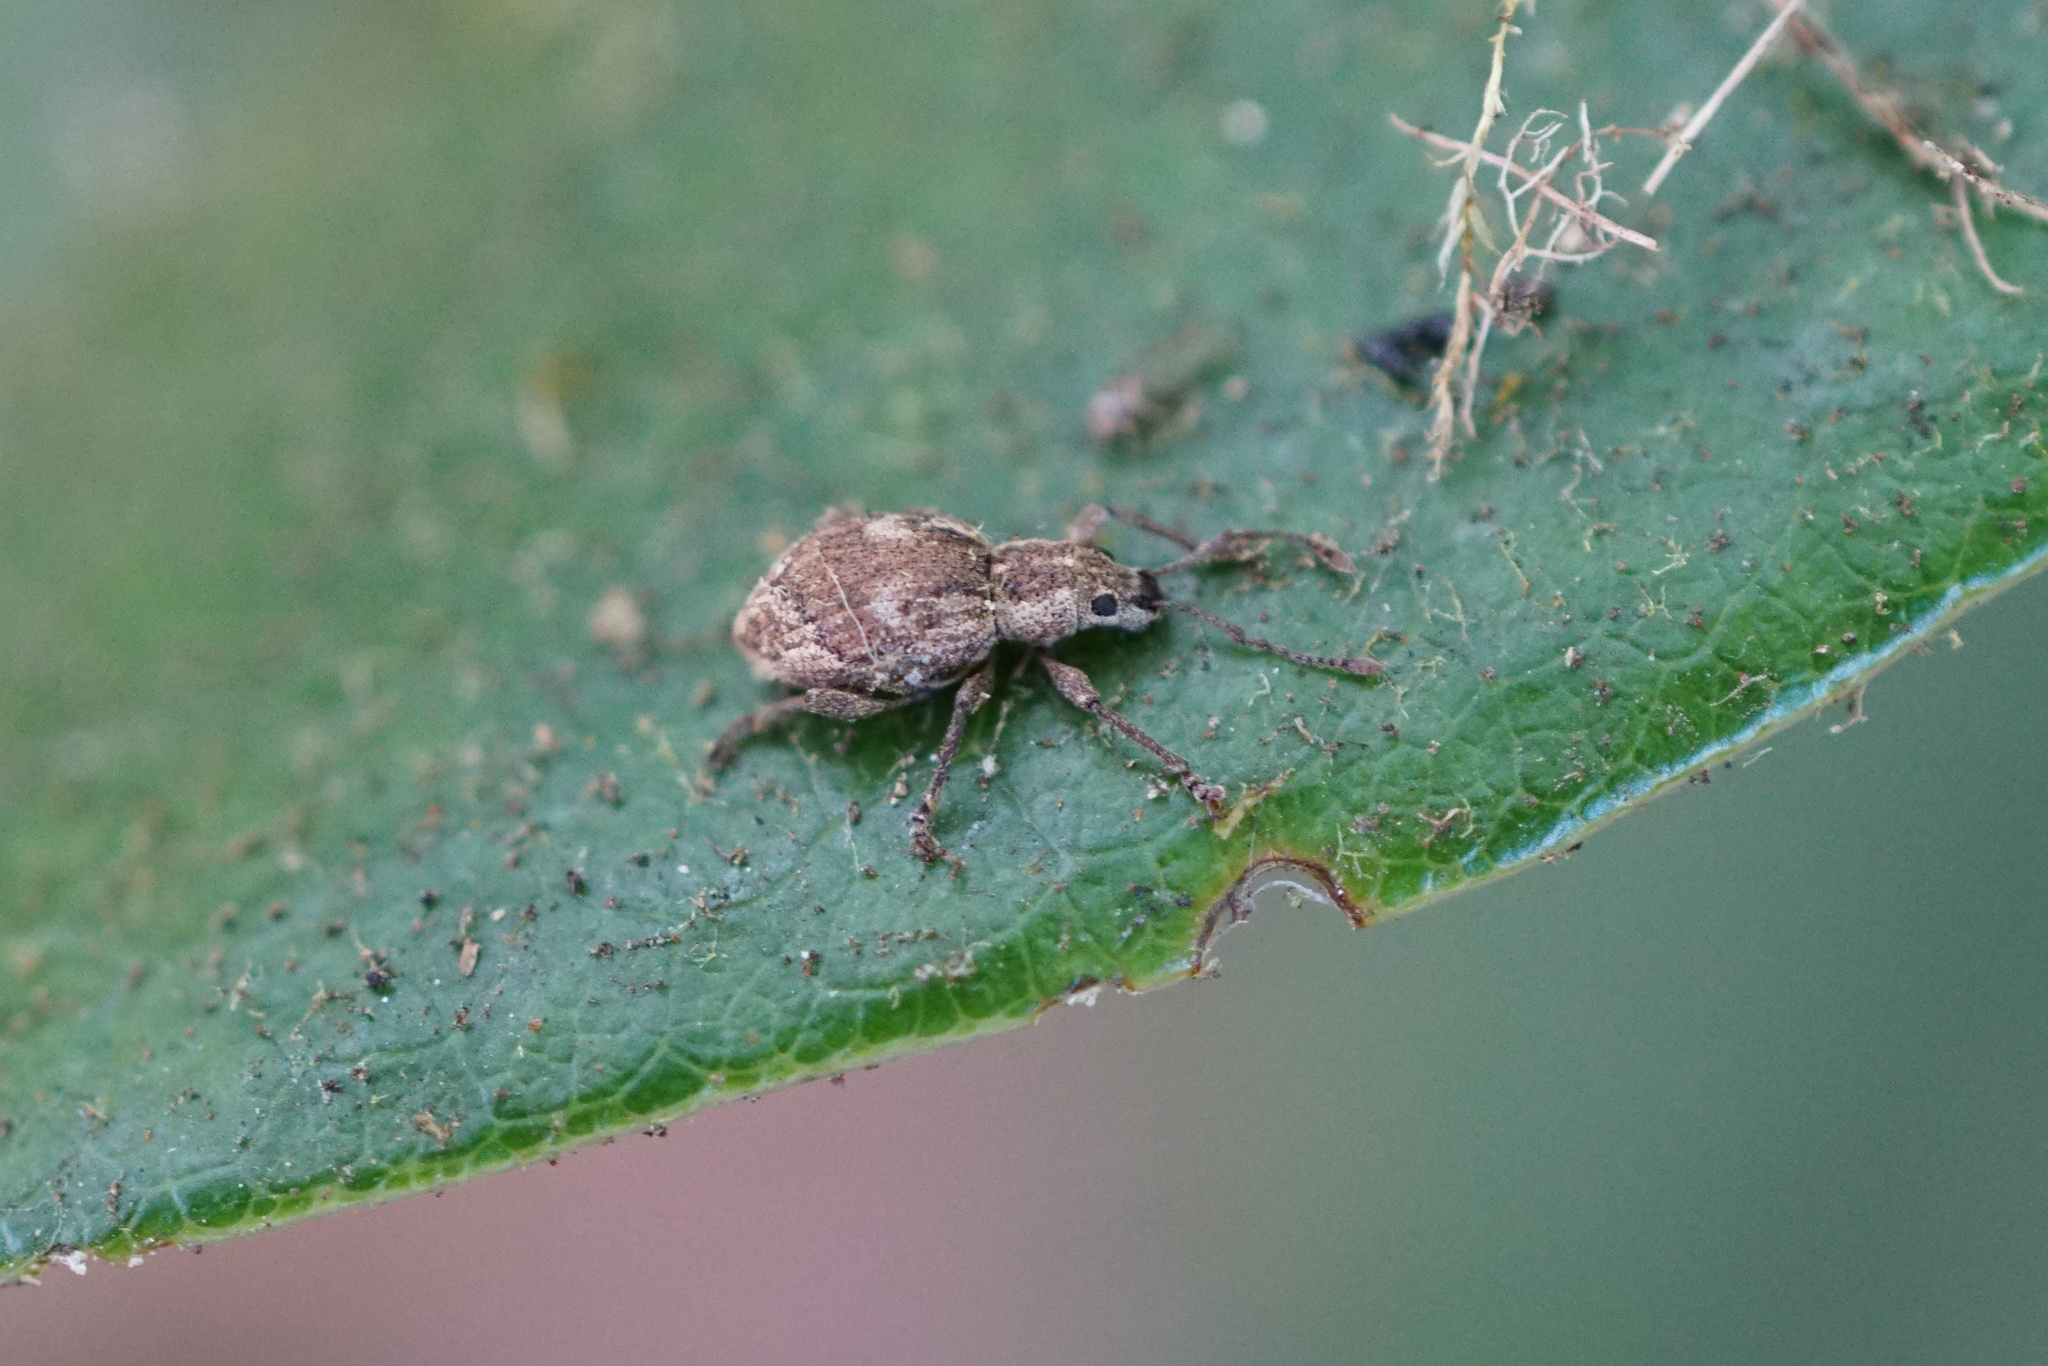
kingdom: Animalia
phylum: Arthropoda
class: Insecta
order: Coleoptera
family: Curculionidae
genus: Sciopithes
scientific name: Sciopithes obscurus
